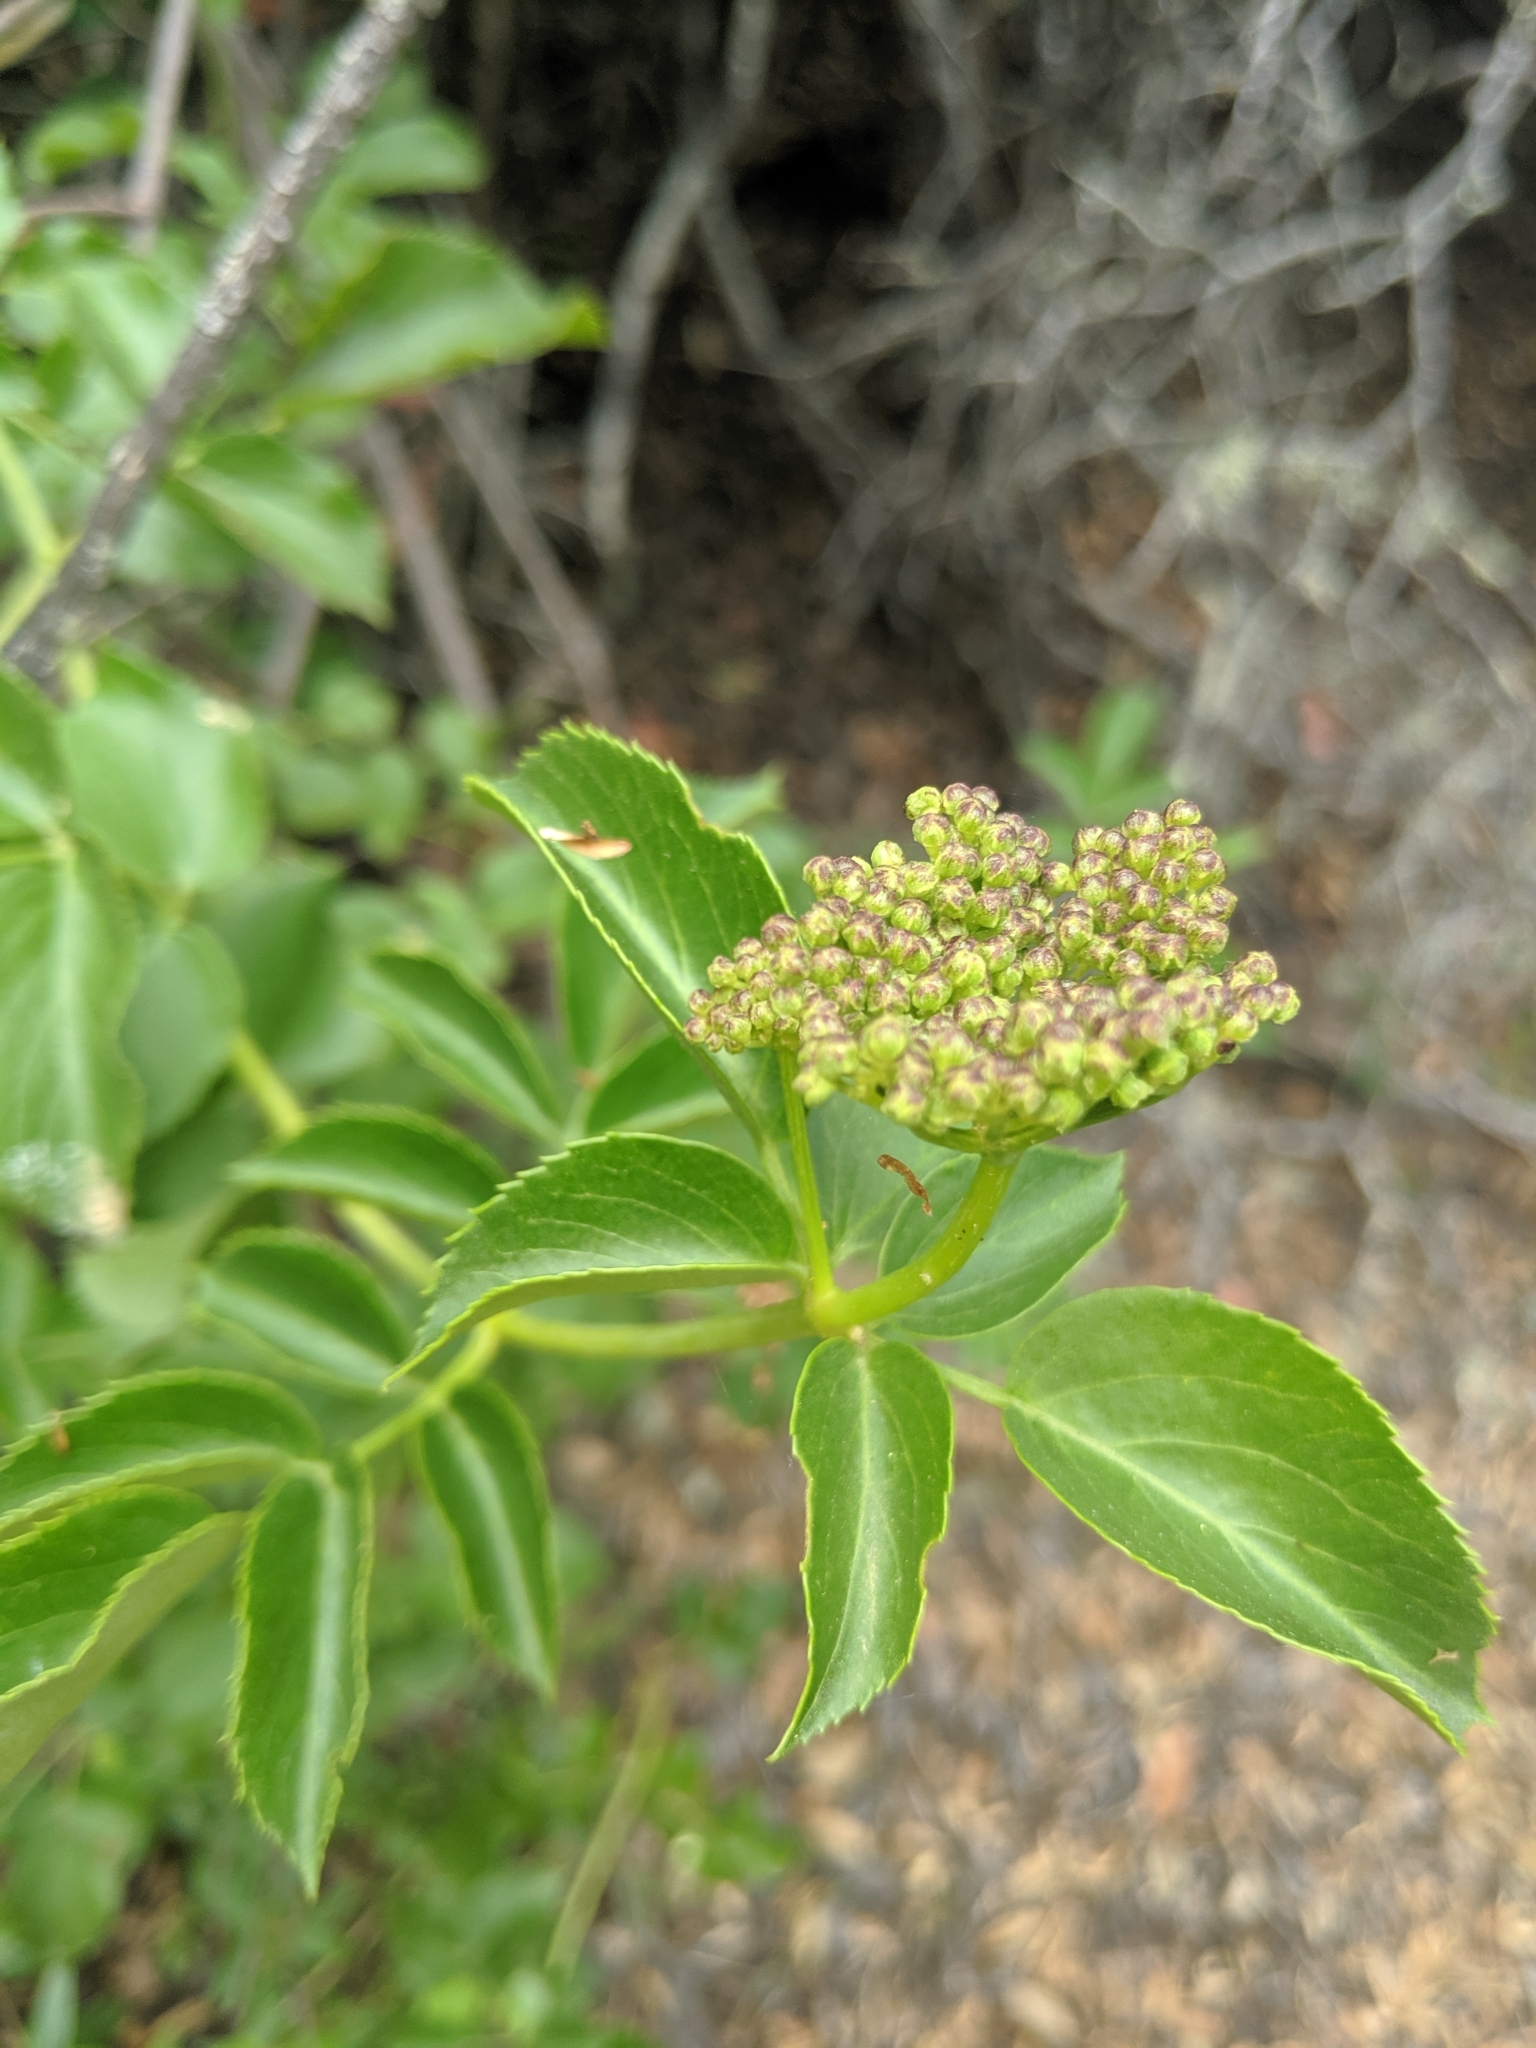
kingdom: Plantae
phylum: Tracheophyta
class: Magnoliopsida
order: Dipsacales
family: Viburnaceae
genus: Sambucus
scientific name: Sambucus cerulea
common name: Blue elder
